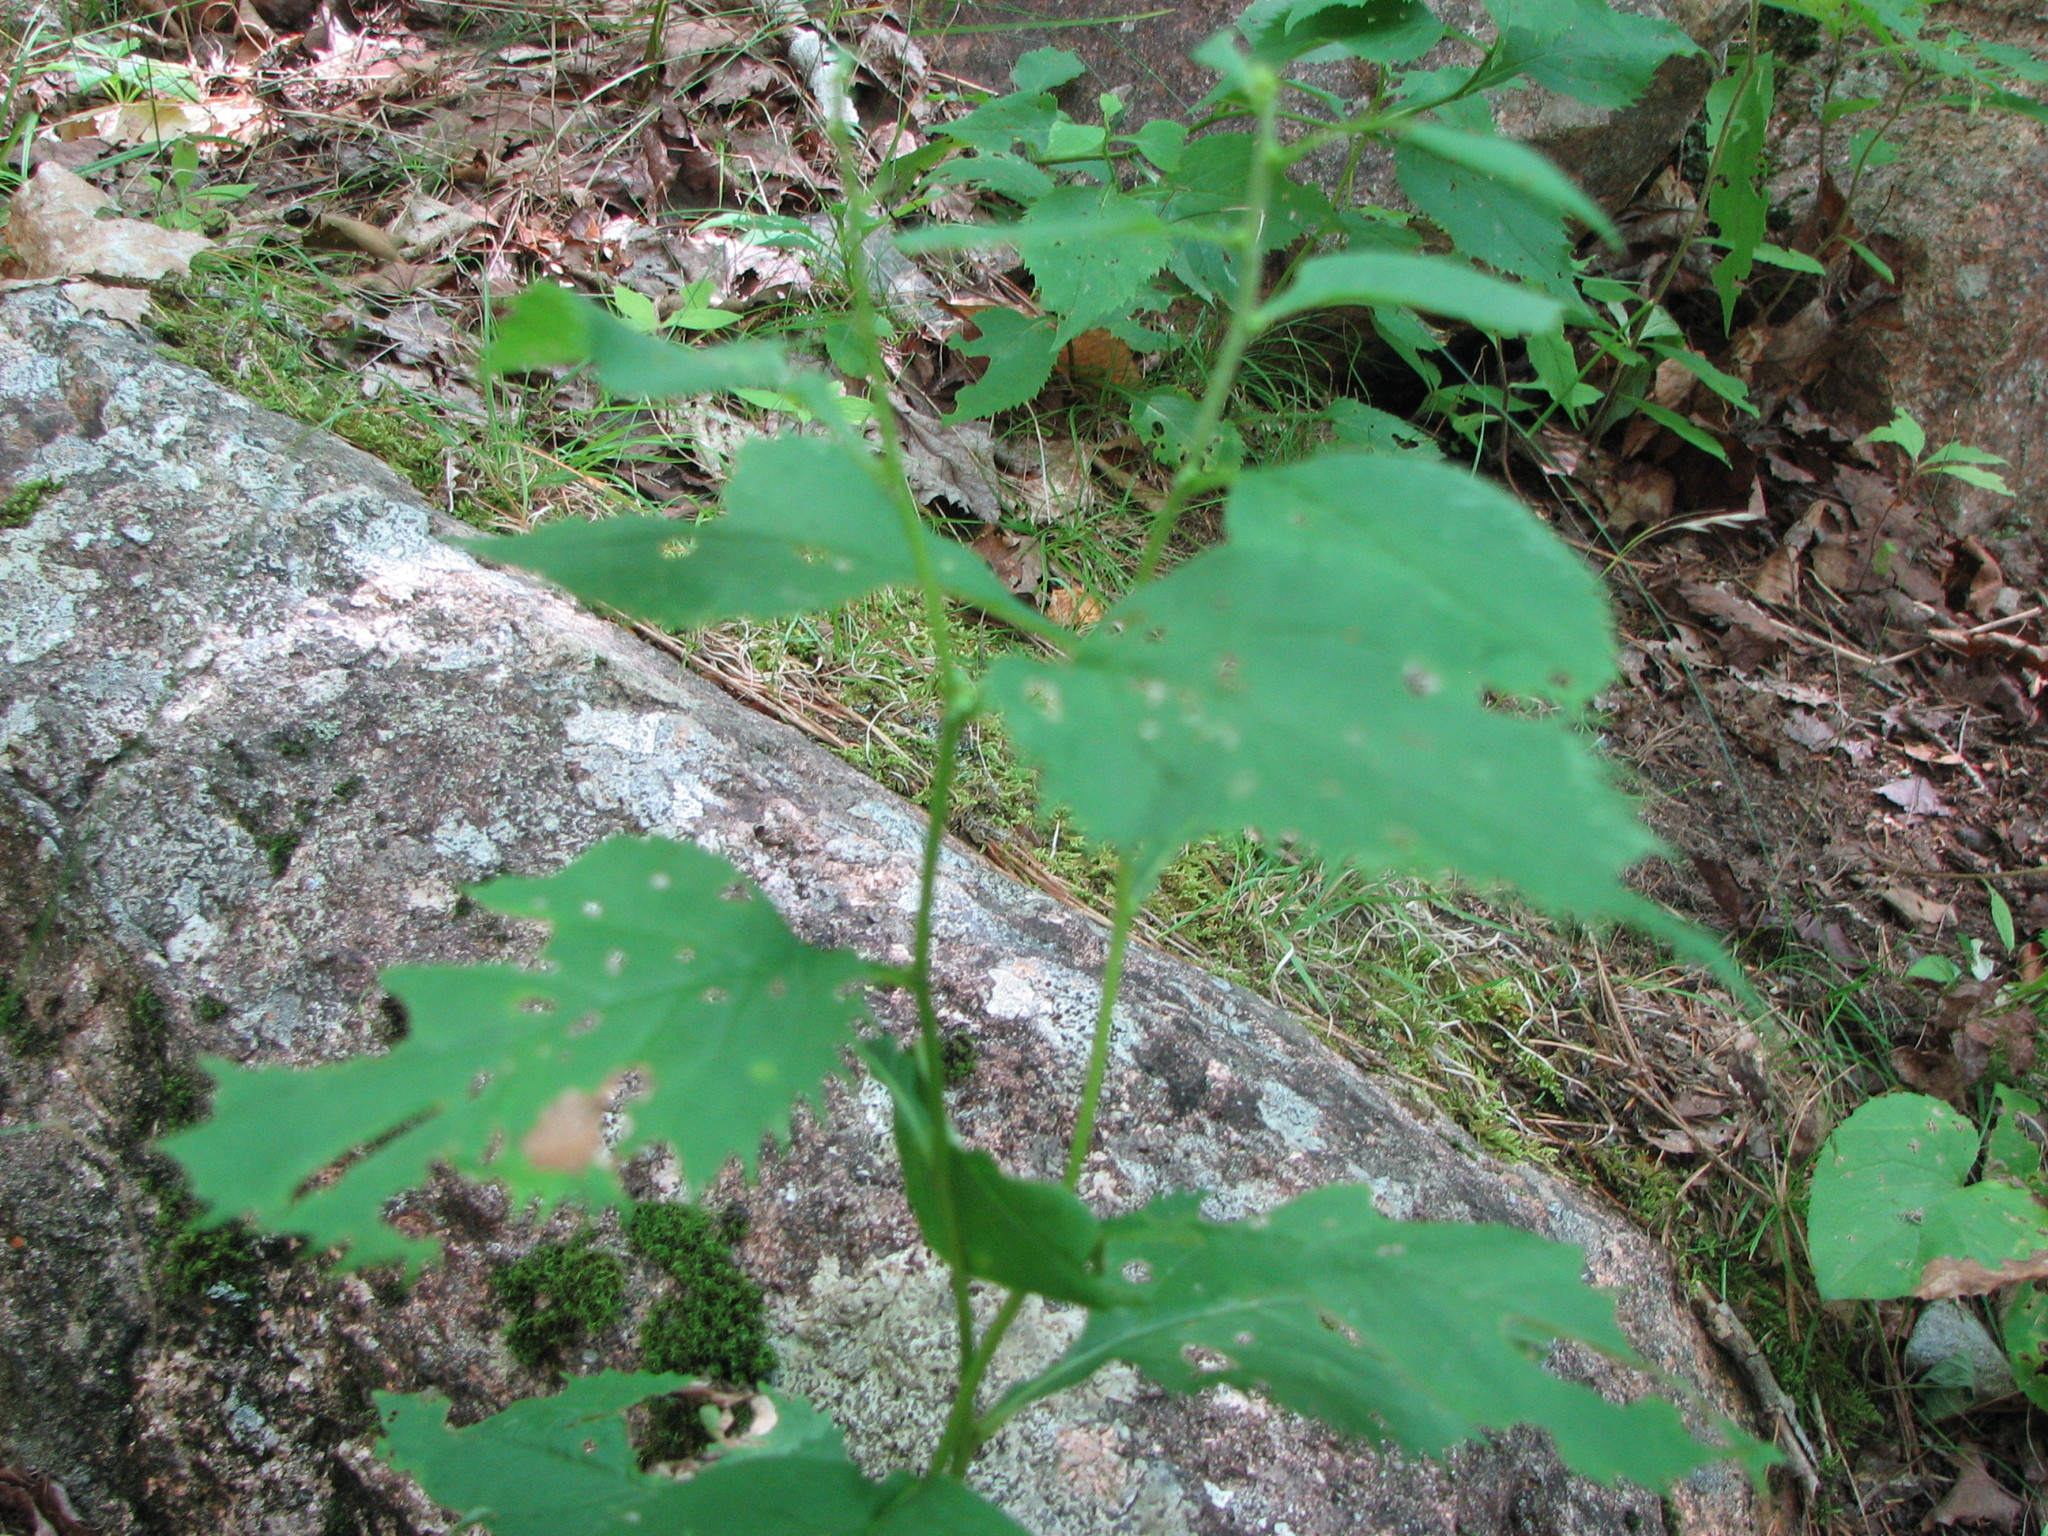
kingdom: Plantae
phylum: Tracheophyta
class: Magnoliopsida
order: Asterales
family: Asteraceae
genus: Solidago
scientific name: Solidago flexicaulis
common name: Zig-zag goldenrod
